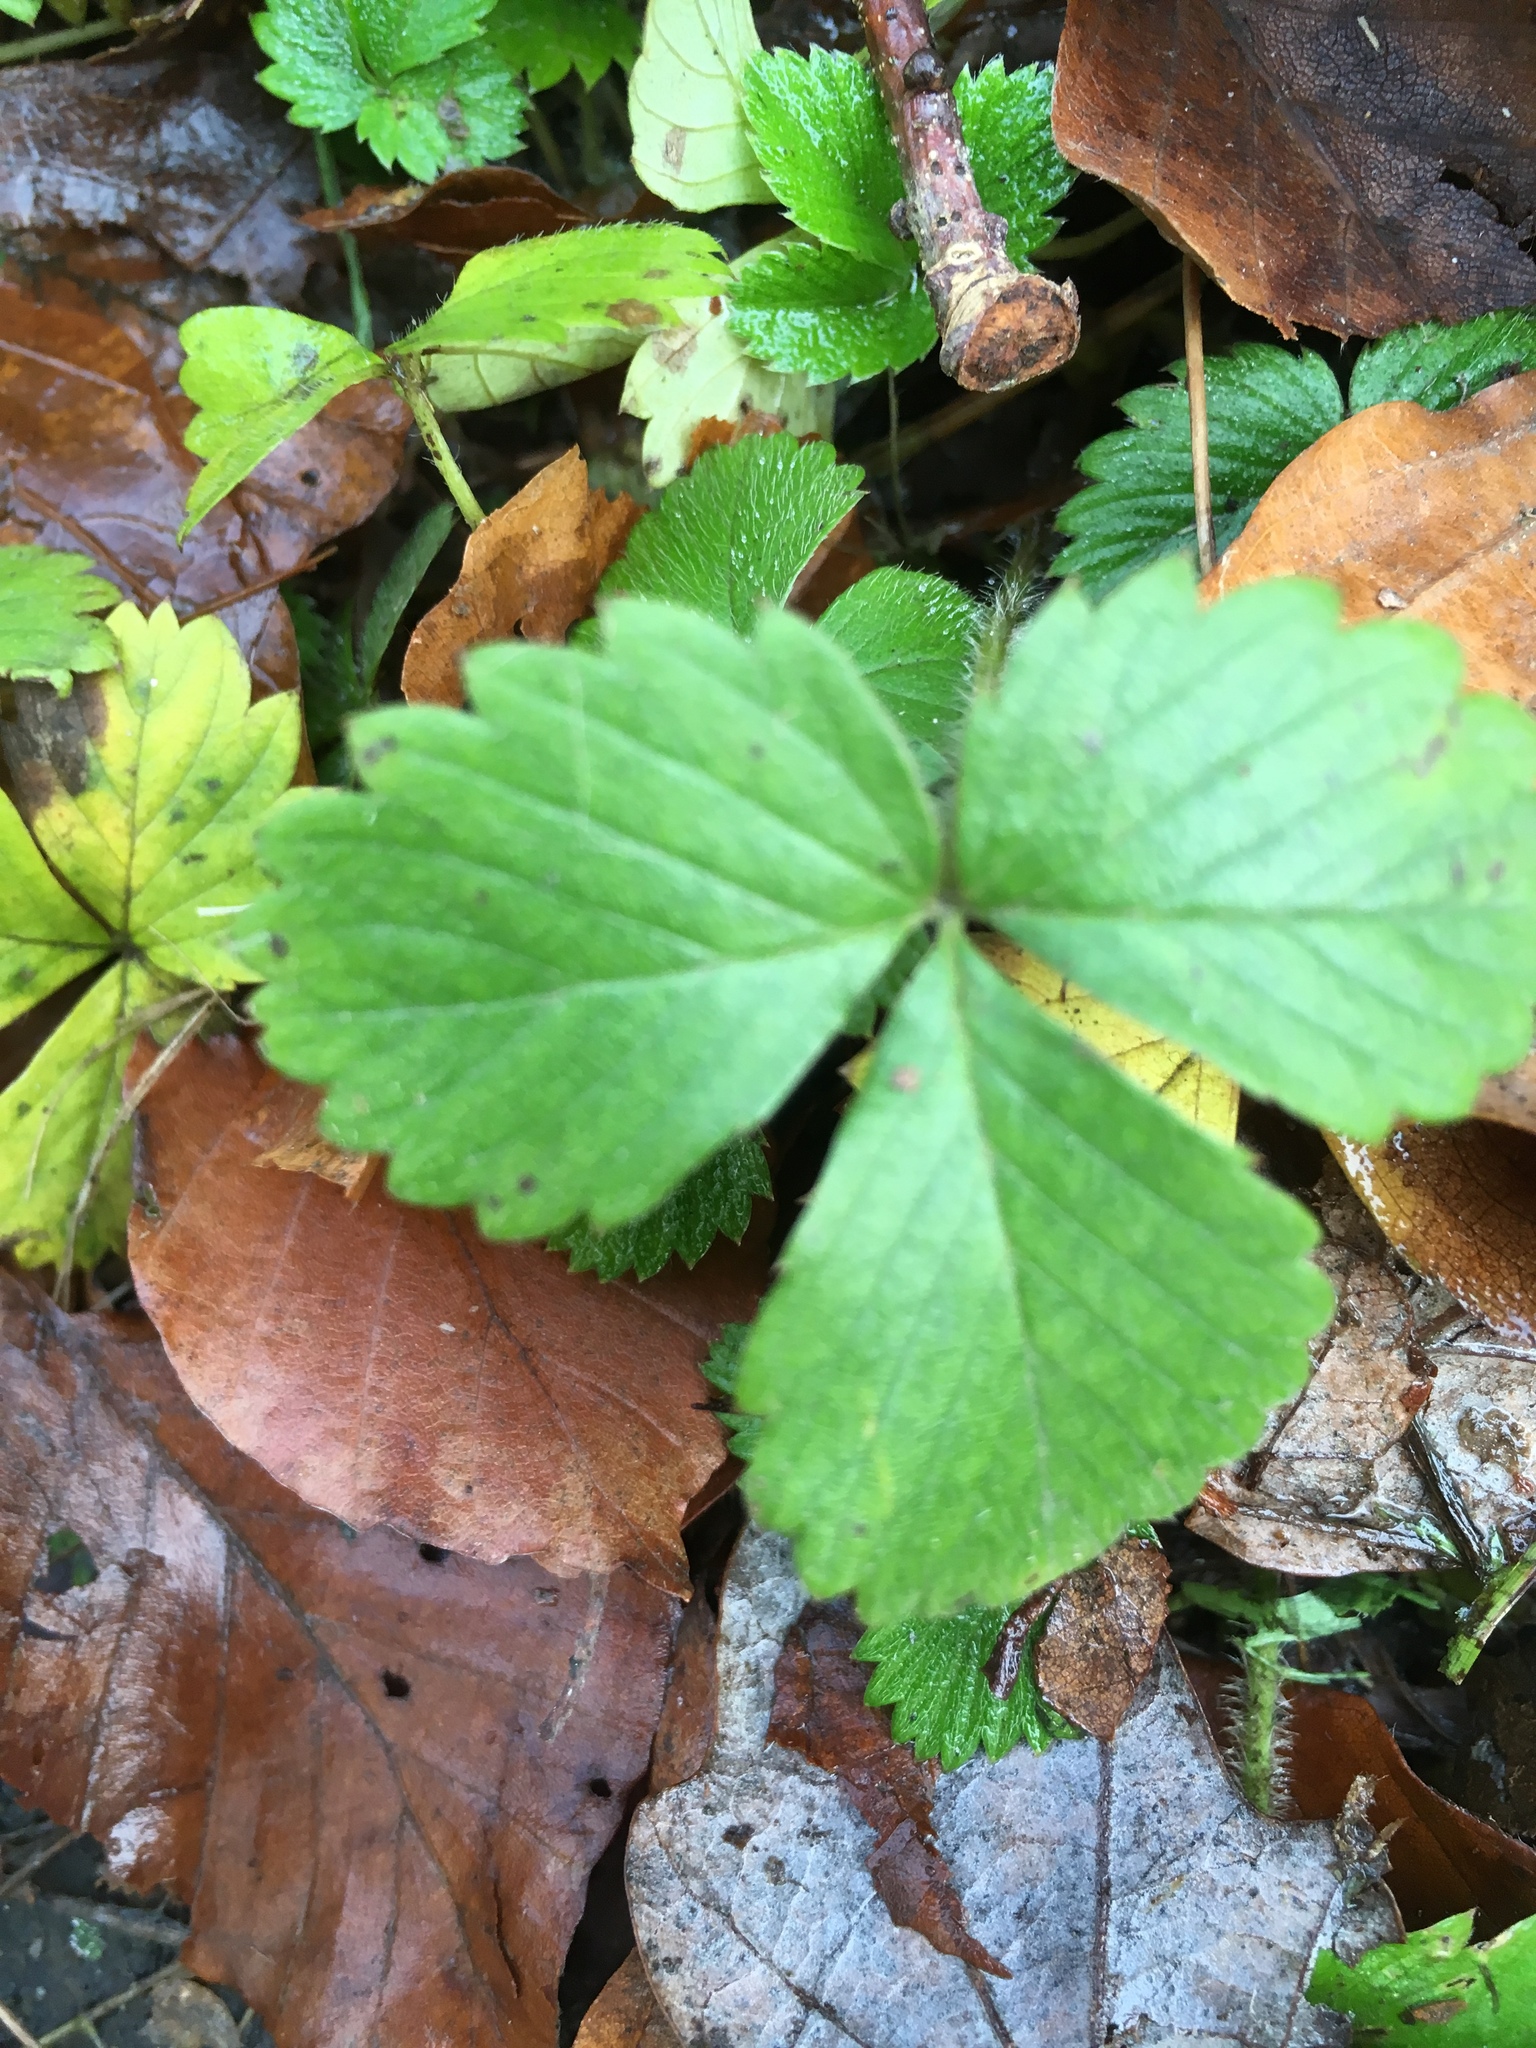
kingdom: Plantae
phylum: Tracheophyta
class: Magnoliopsida
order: Rosales
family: Rosaceae
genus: Fragaria
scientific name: Fragaria vesca
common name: Wild strawberry
